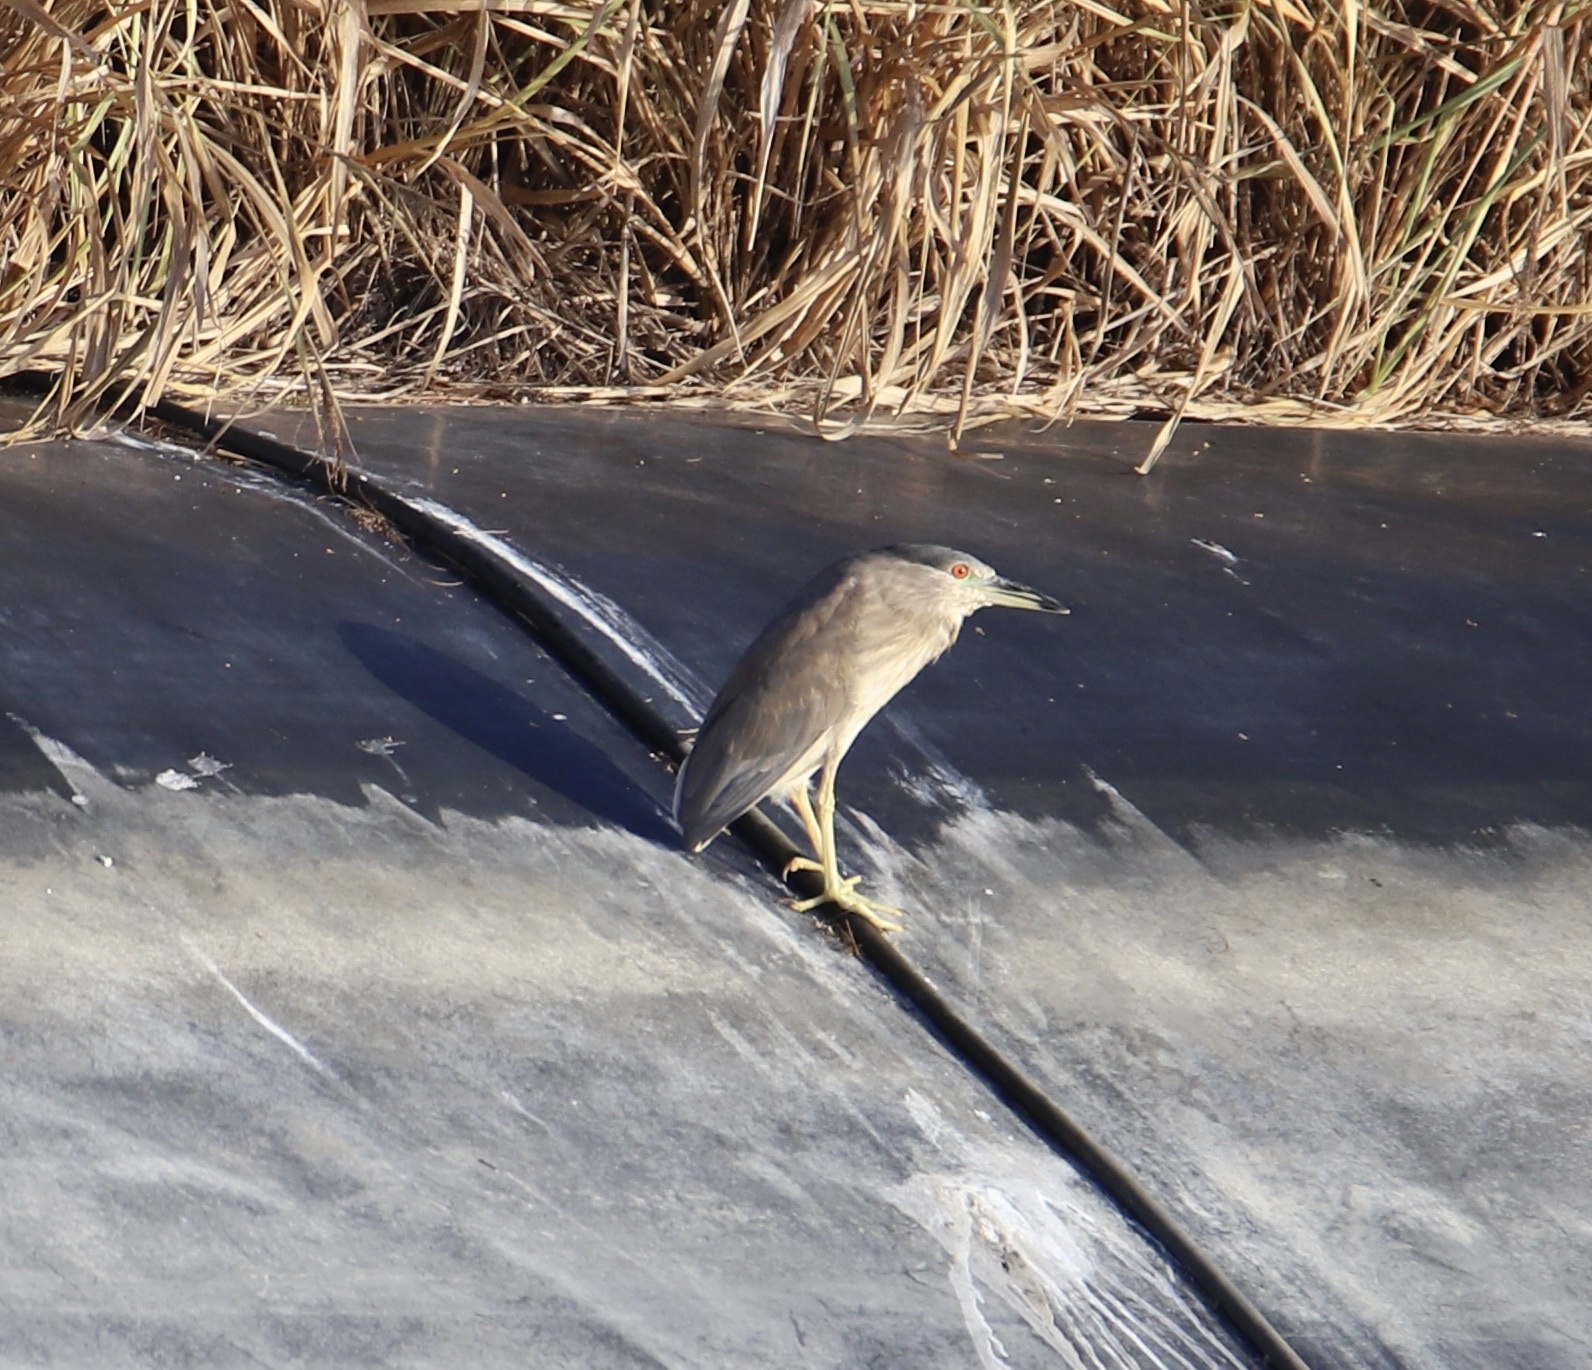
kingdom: Animalia
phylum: Chordata
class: Aves
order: Pelecaniformes
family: Ardeidae
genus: Nycticorax
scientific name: Nycticorax nycticorax
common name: Black-crowned night heron
